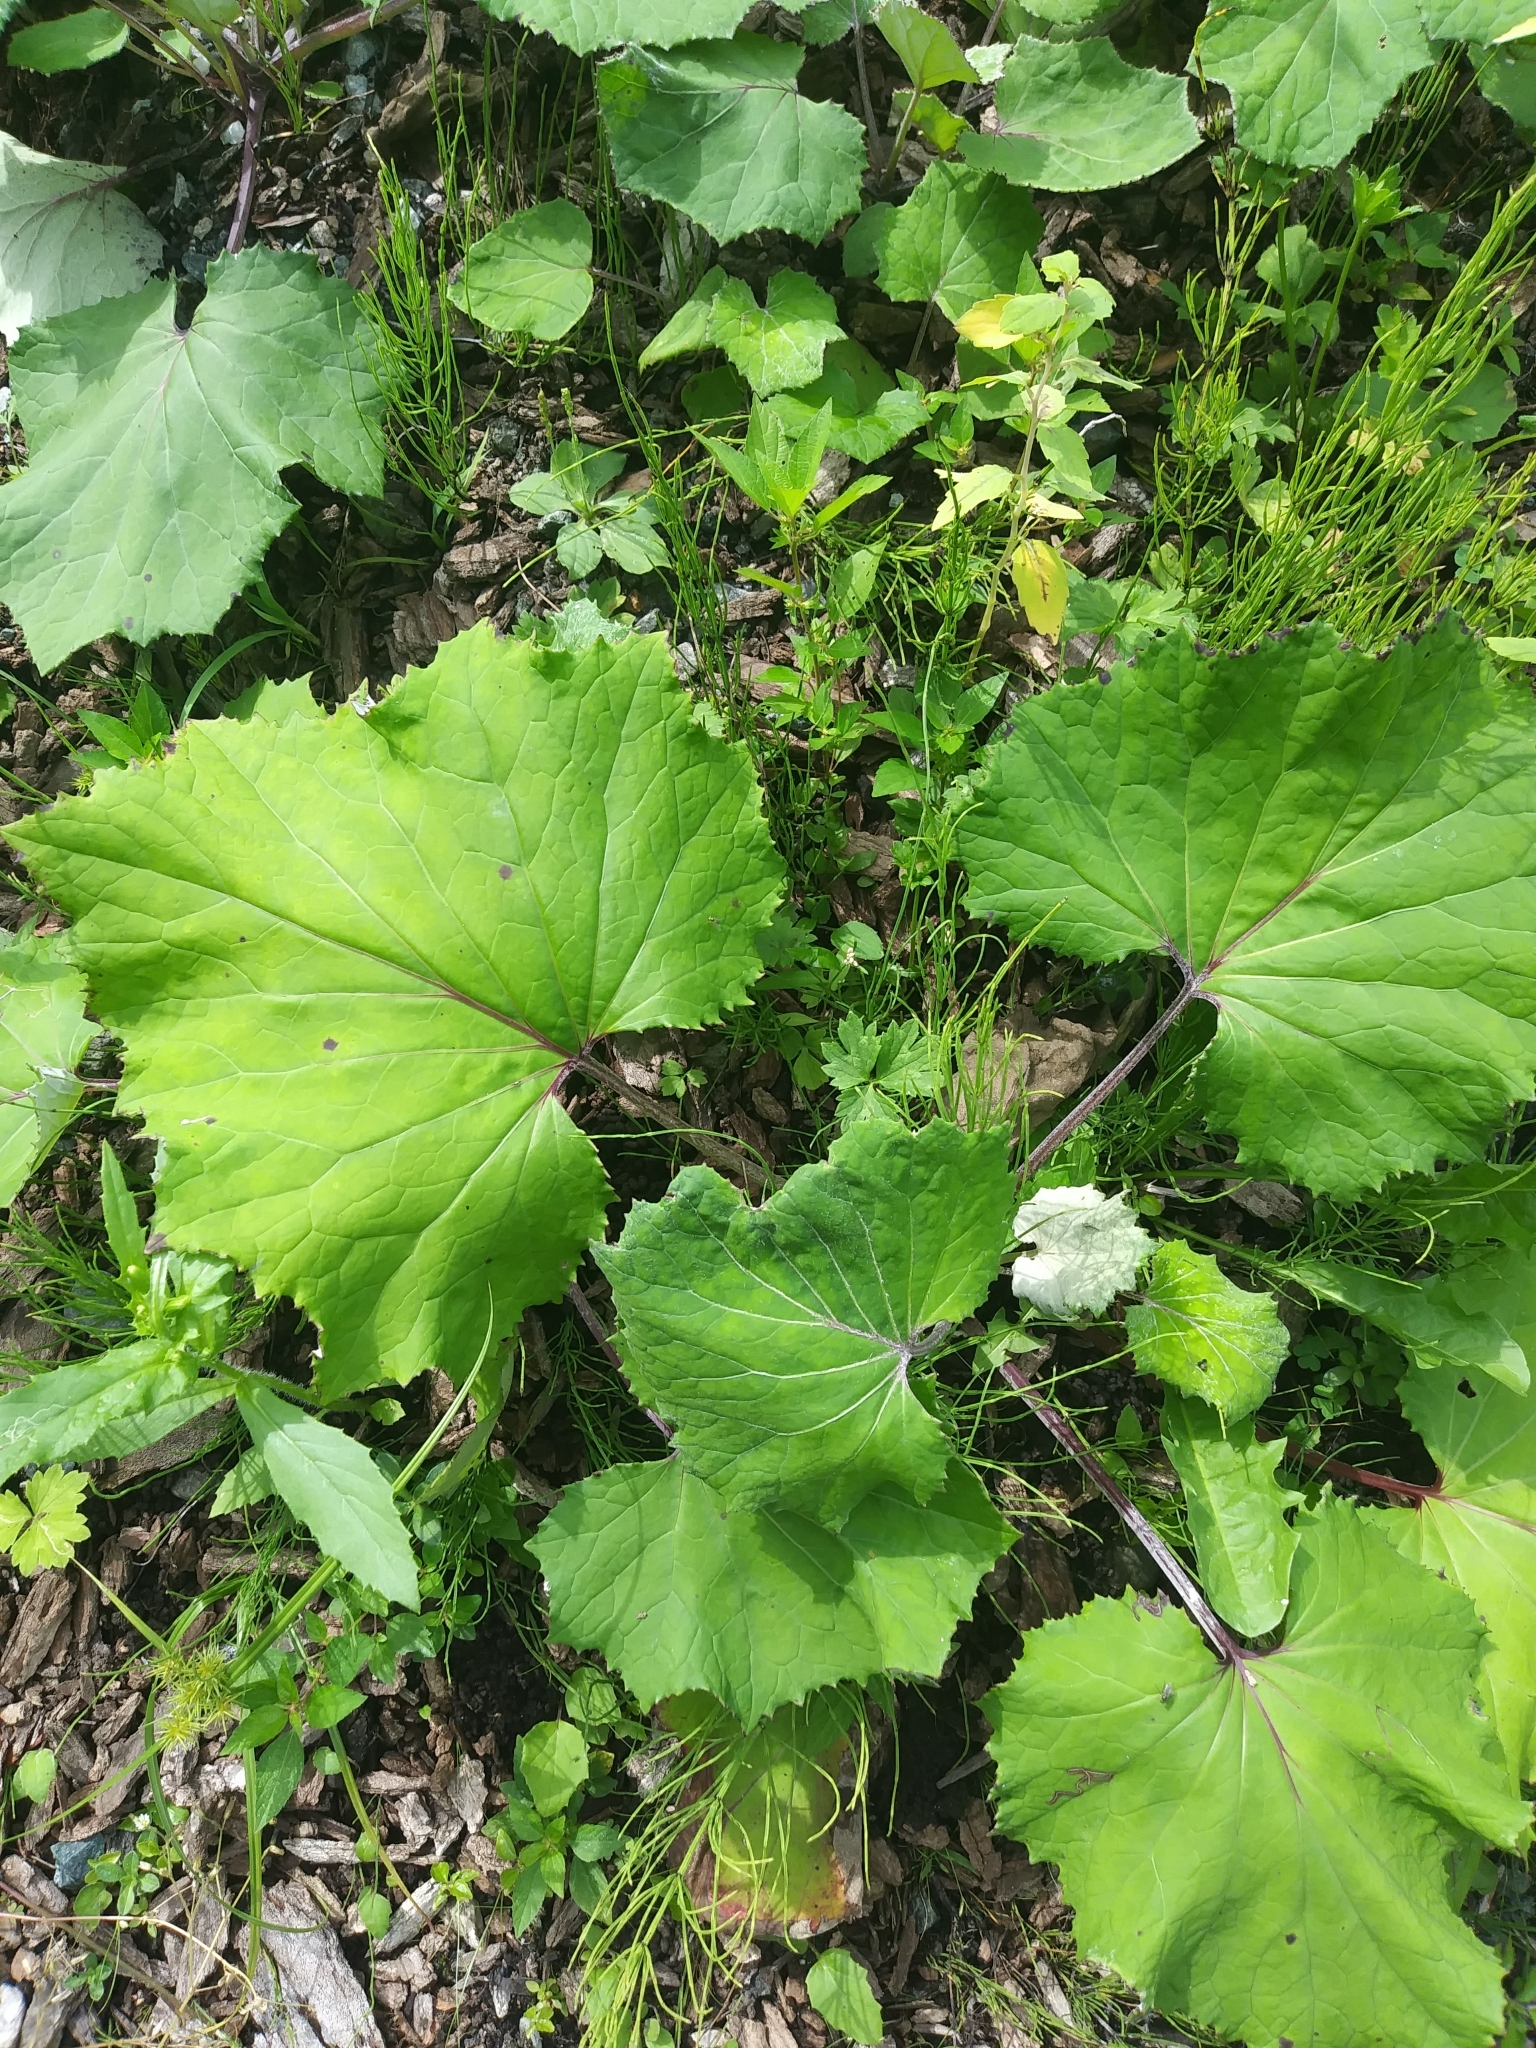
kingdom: Plantae
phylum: Tracheophyta
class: Magnoliopsida
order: Asterales
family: Asteraceae
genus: Tussilago
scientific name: Tussilago farfara
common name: Coltsfoot
